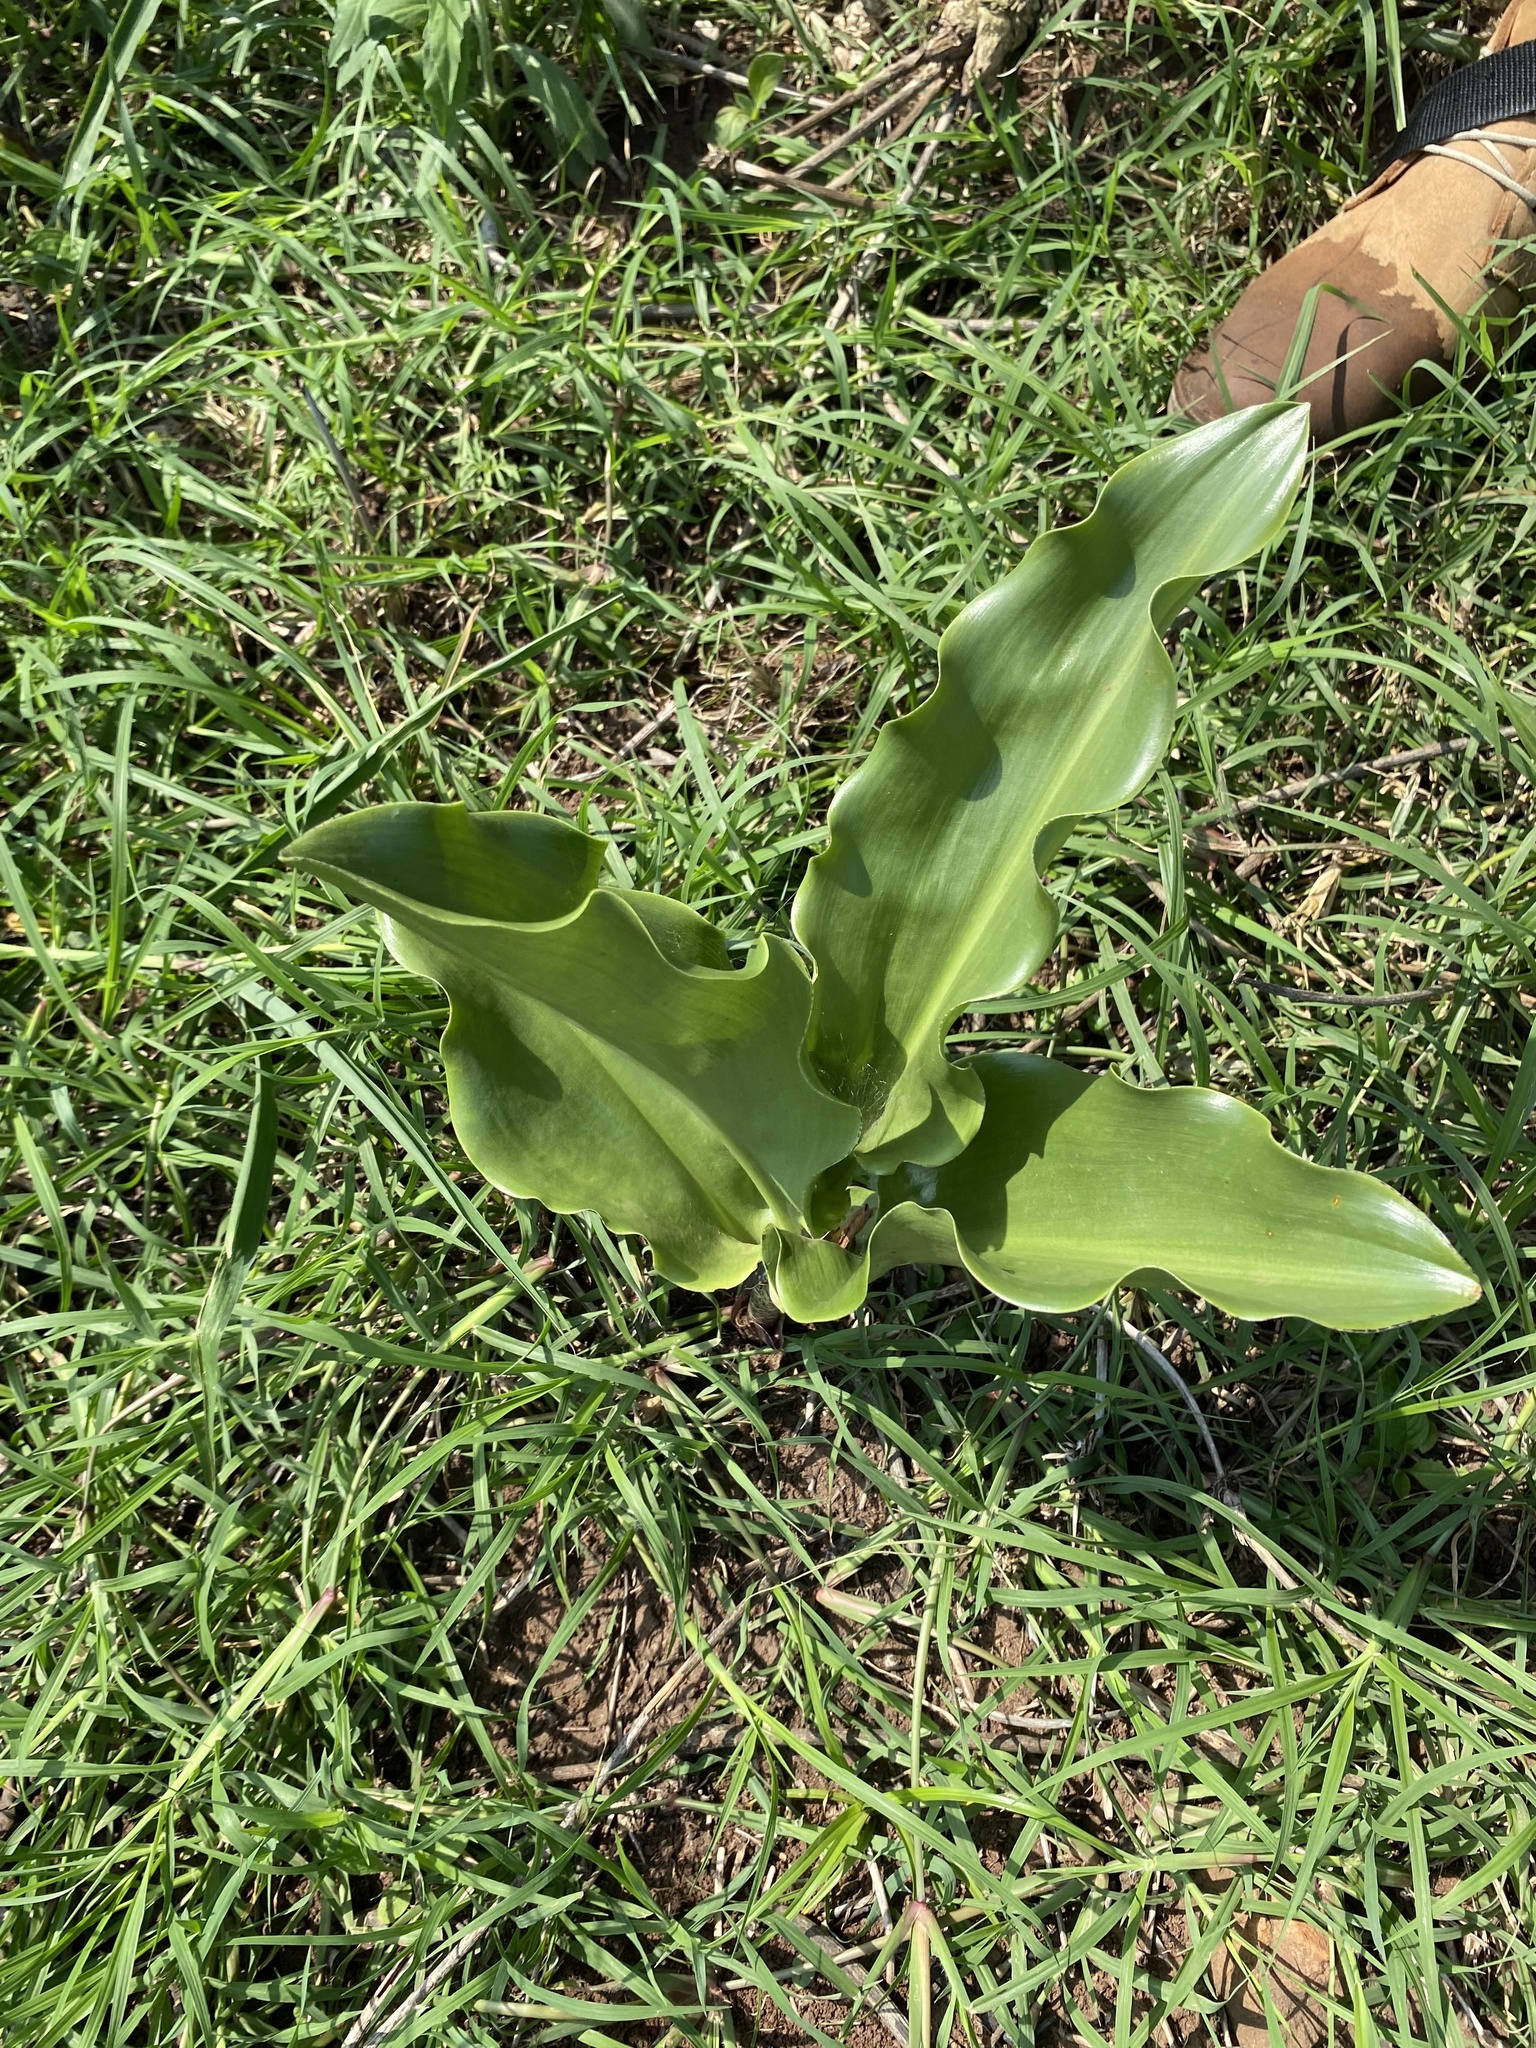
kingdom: Plantae
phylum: Tracheophyta
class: Liliopsida
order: Asparagales
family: Amaryllidaceae
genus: Scadoxus
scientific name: Scadoxus puniceus
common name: Royal-paintbrush
